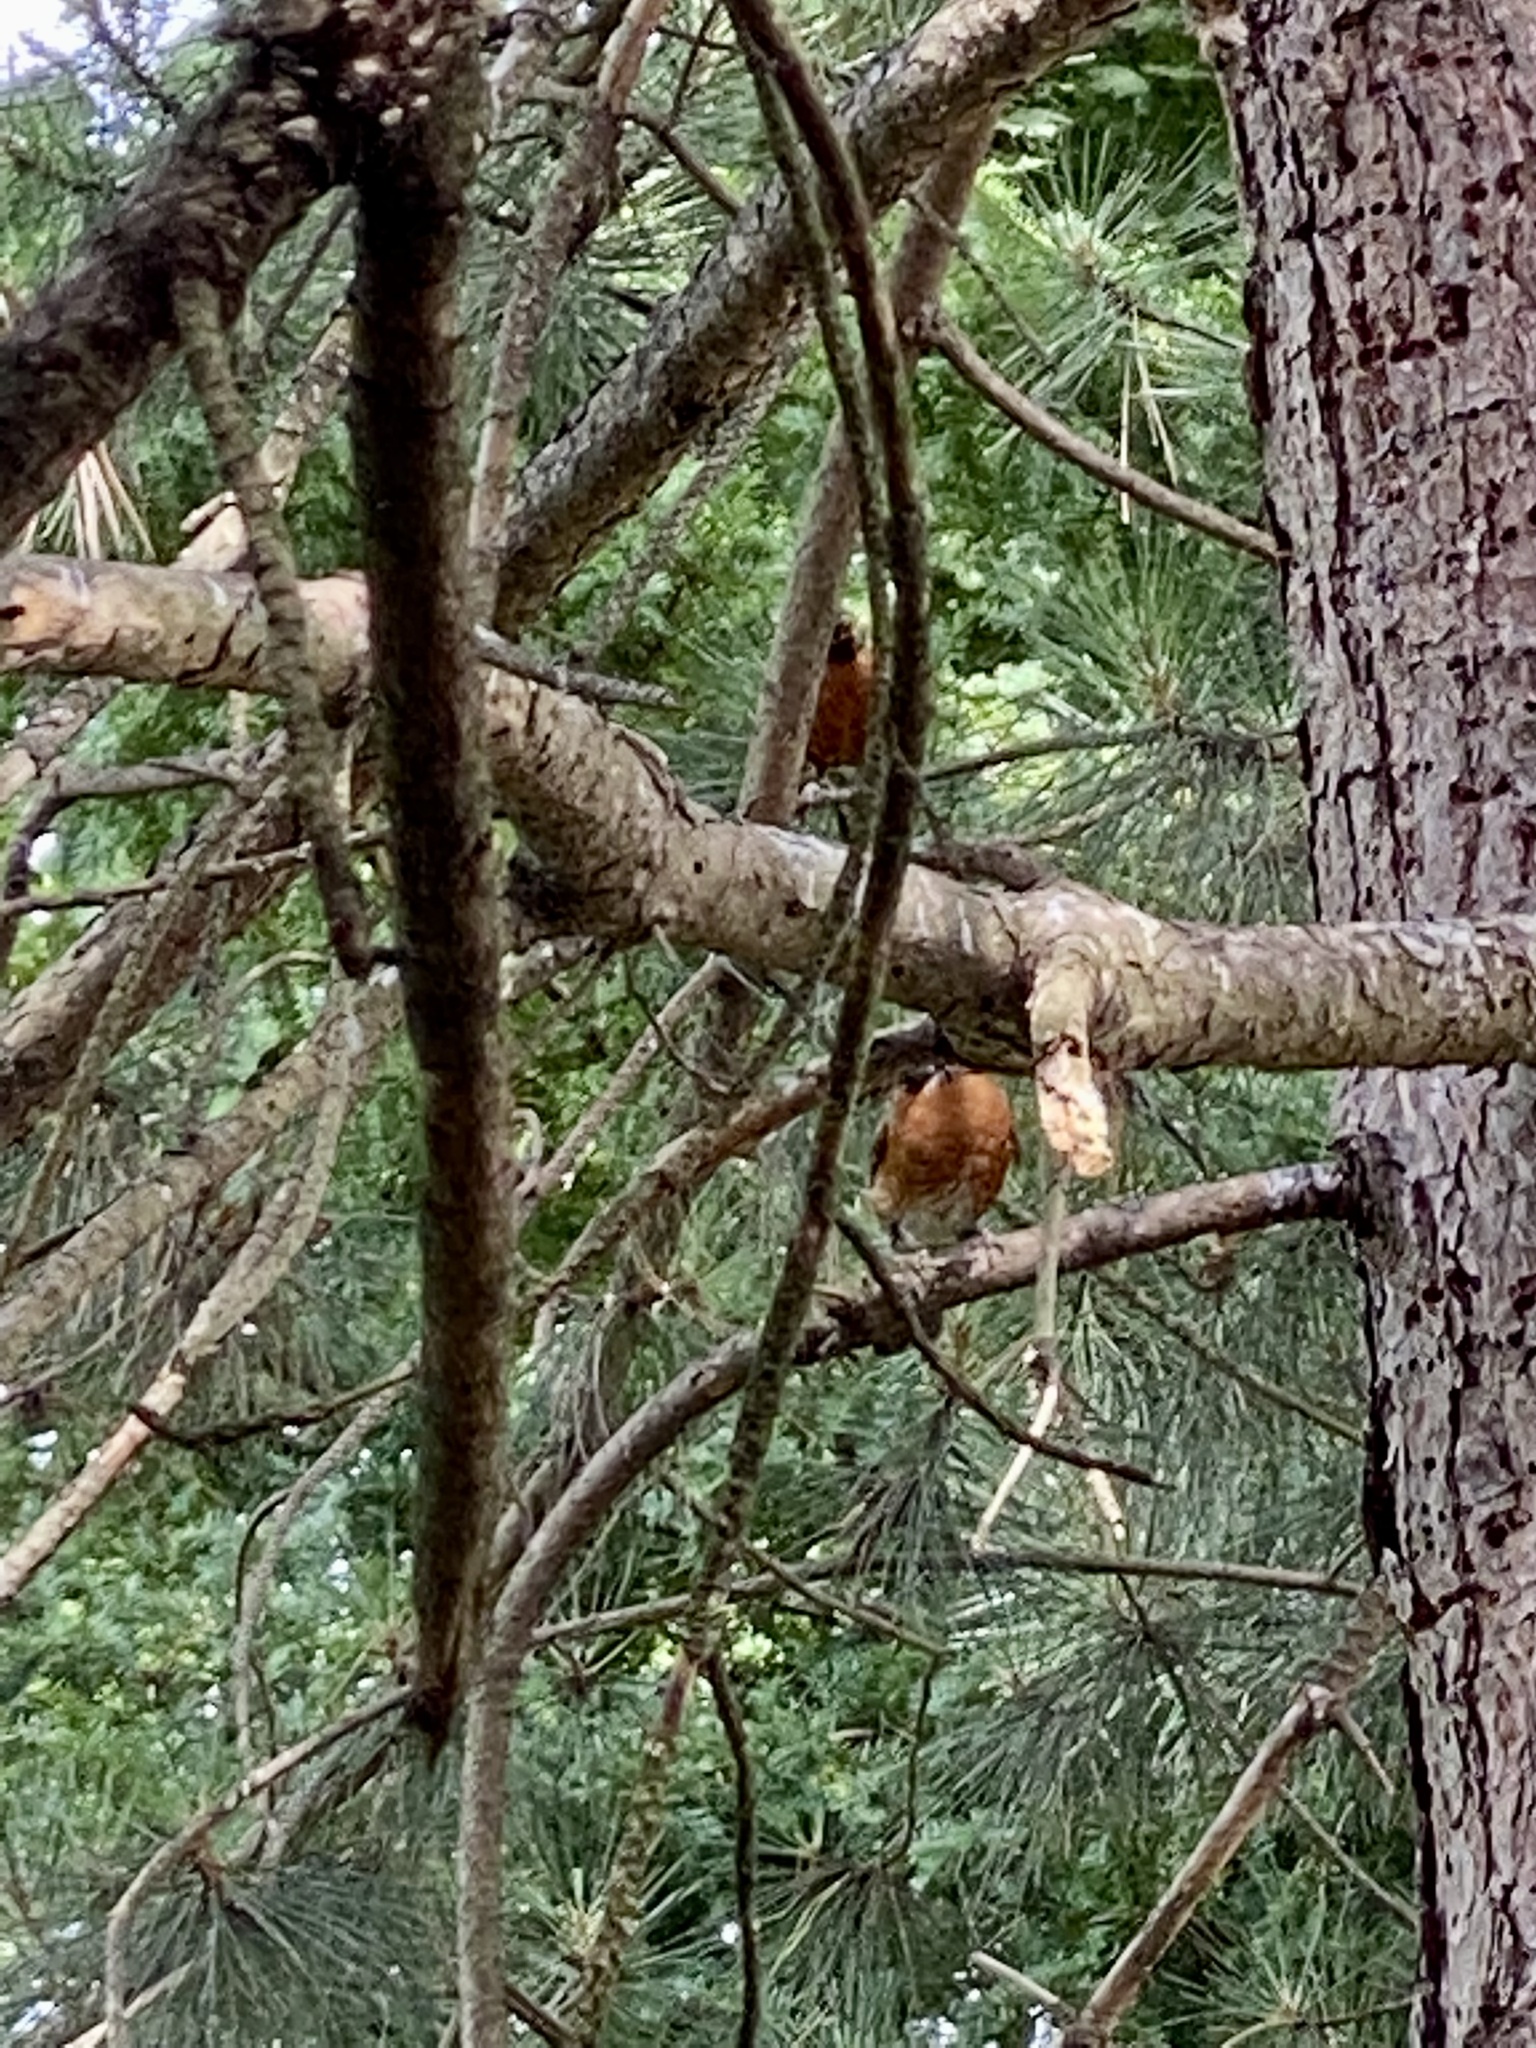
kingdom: Animalia
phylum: Chordata
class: Aves
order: Passeriformes
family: Turdidae
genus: Turdus
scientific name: Turdus migratorius
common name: American robin
